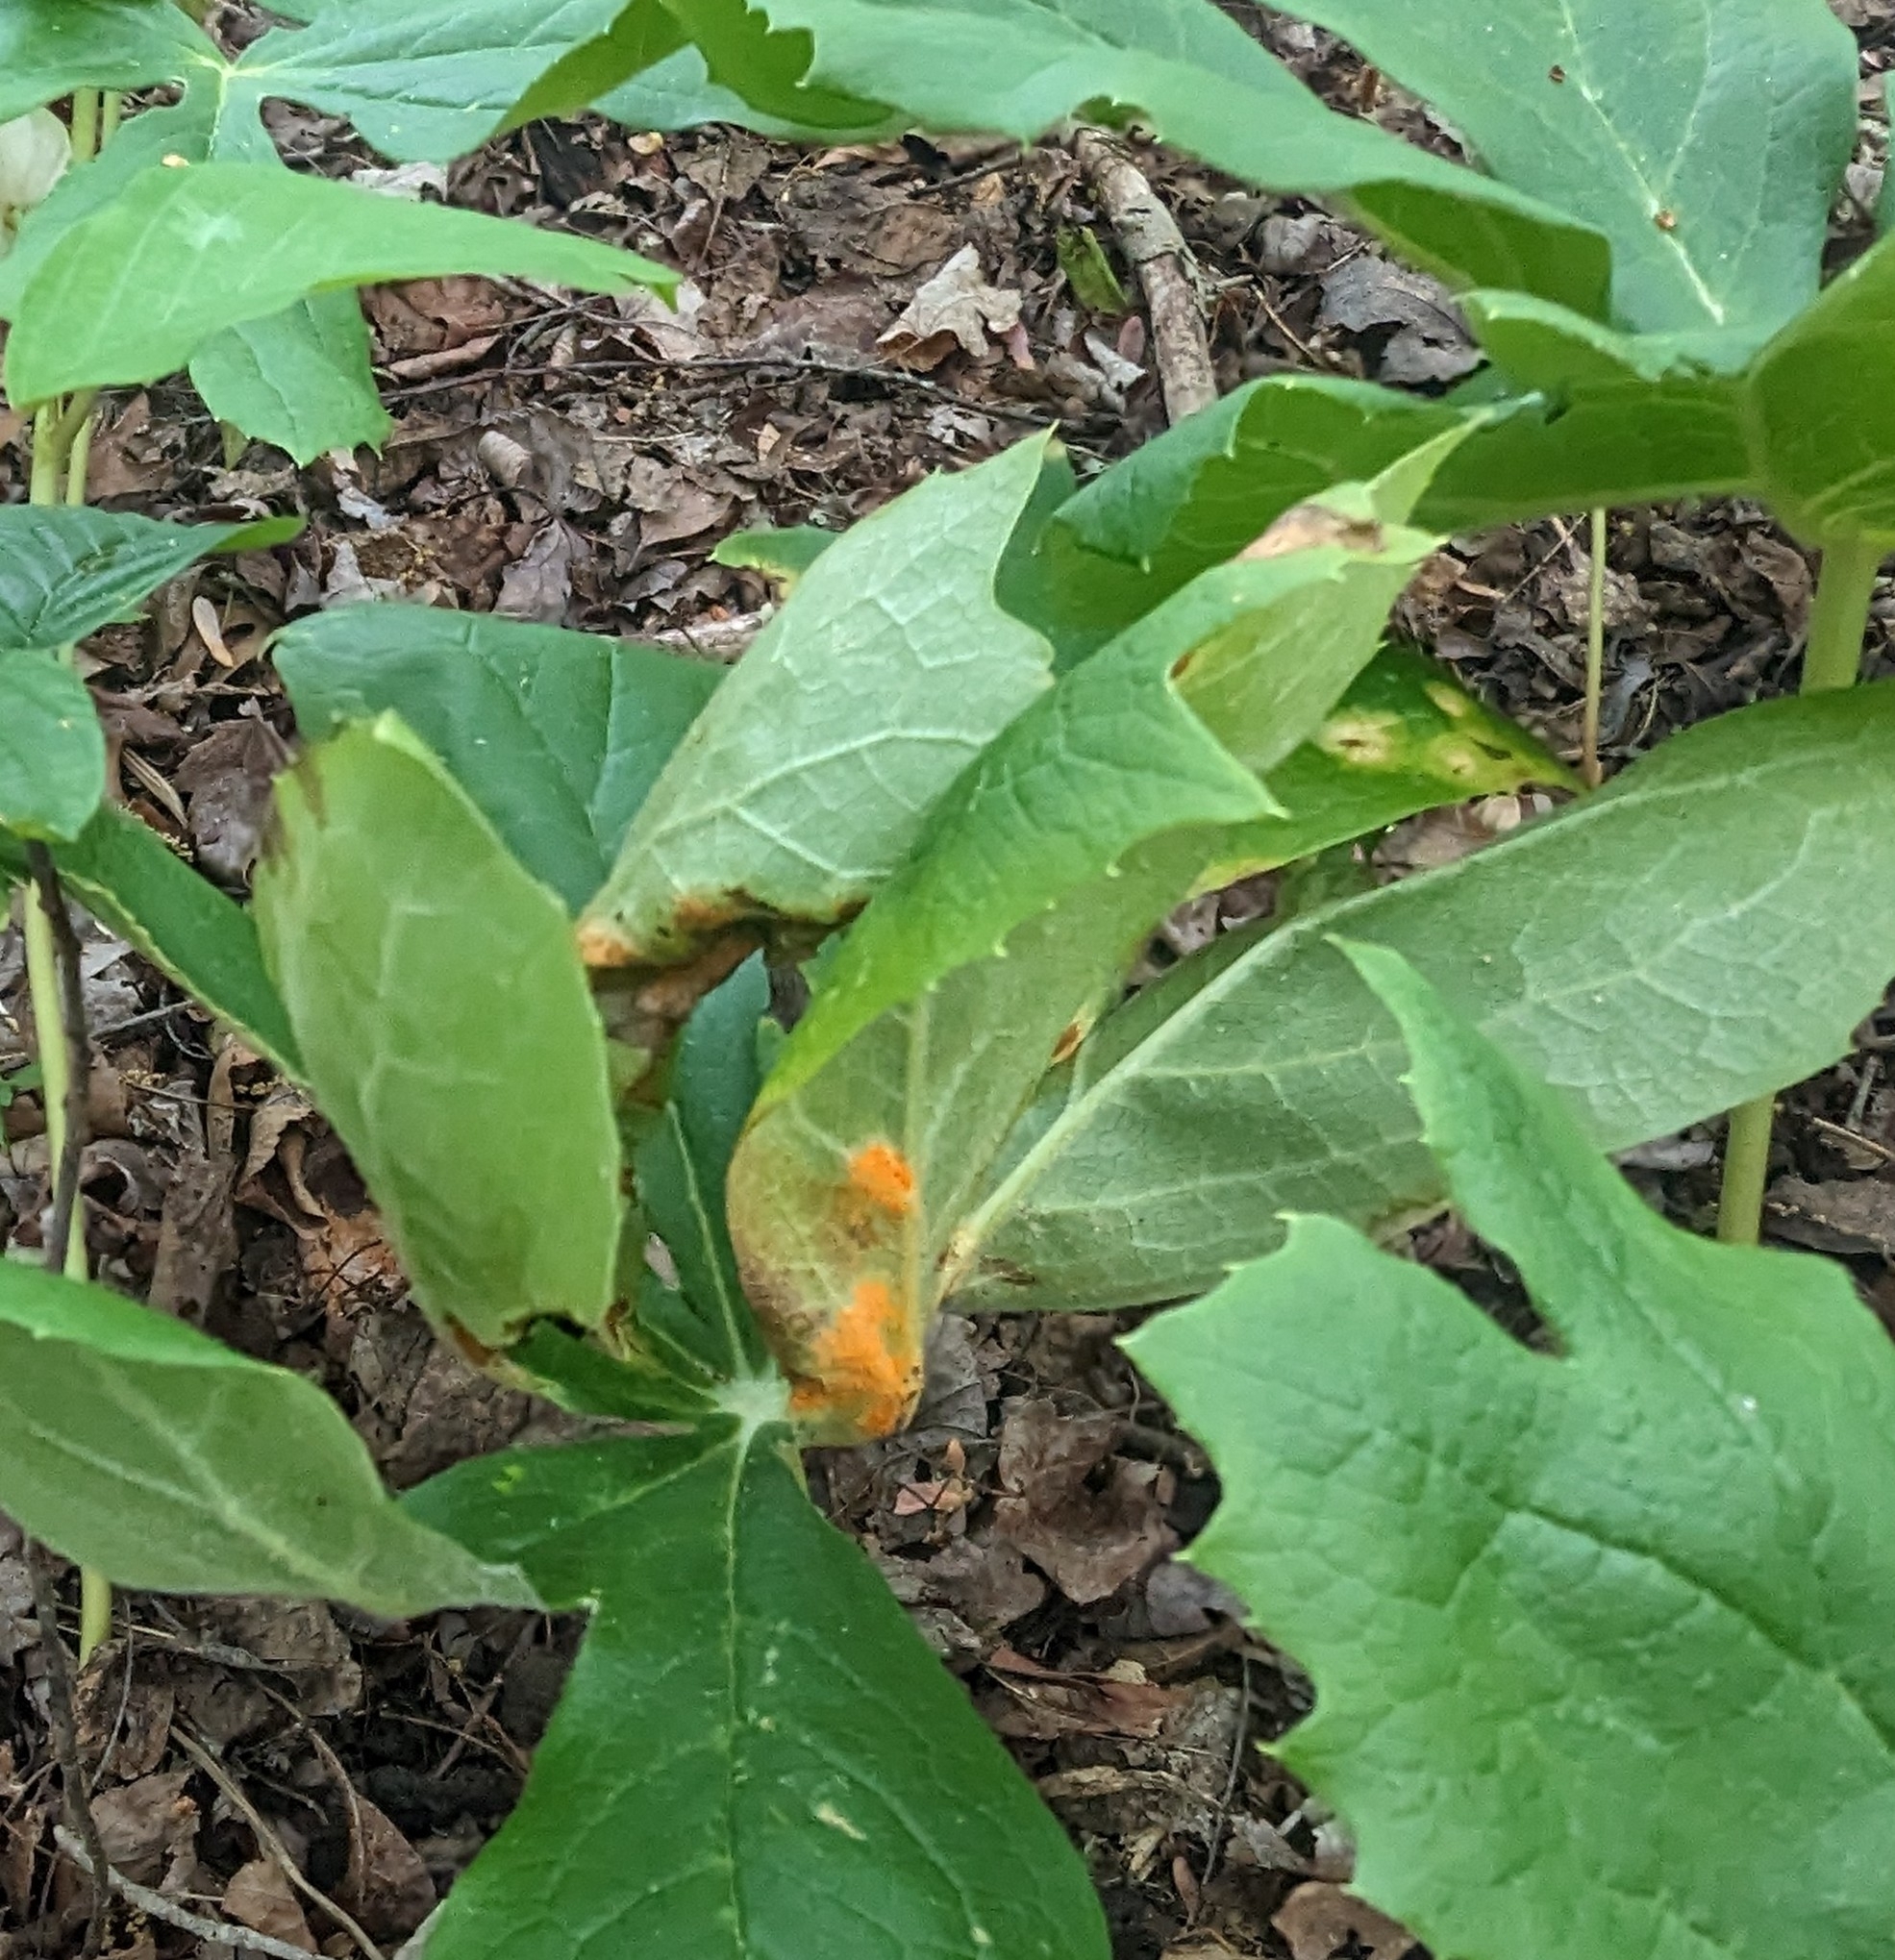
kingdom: Fungi
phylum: Basidiomycota
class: Pucciniomycetes
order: Pucciniales
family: Pucciniaceae
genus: Puccinia
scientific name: Puccinia podophylli
